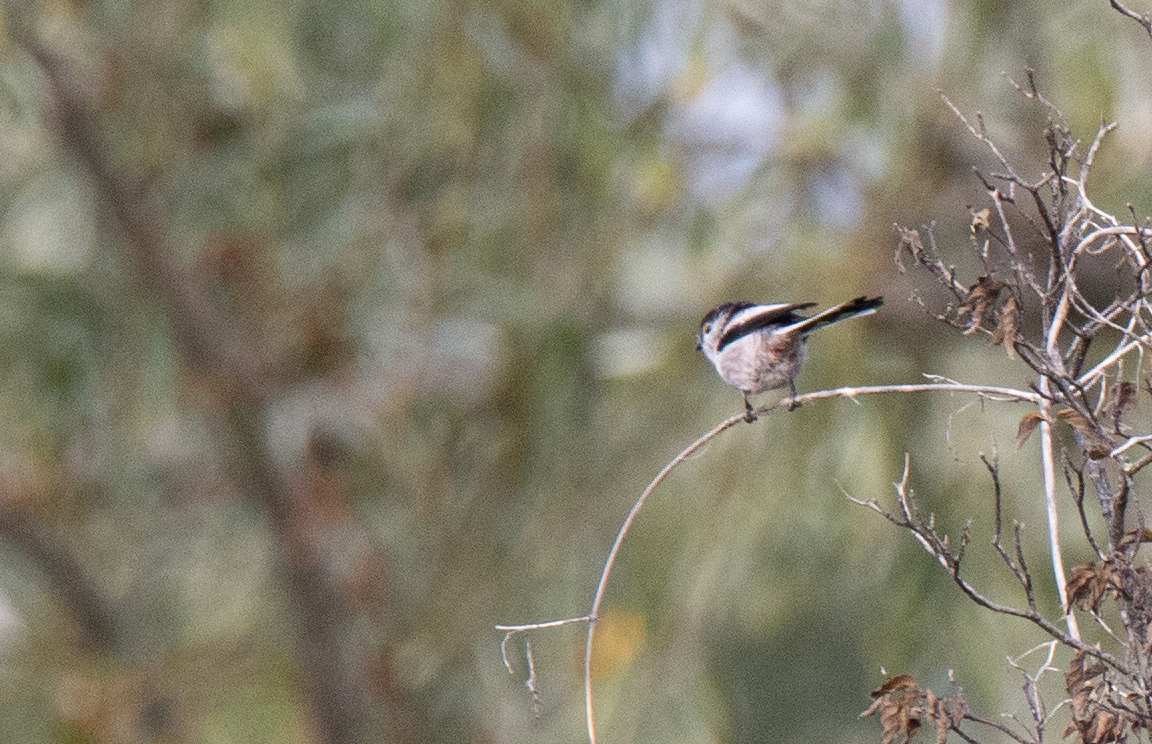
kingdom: Animalia
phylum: Chordata
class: Aves
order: Passeriformes
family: Aegithalidae
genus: Aegithalos
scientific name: Aegithalos caudatus
